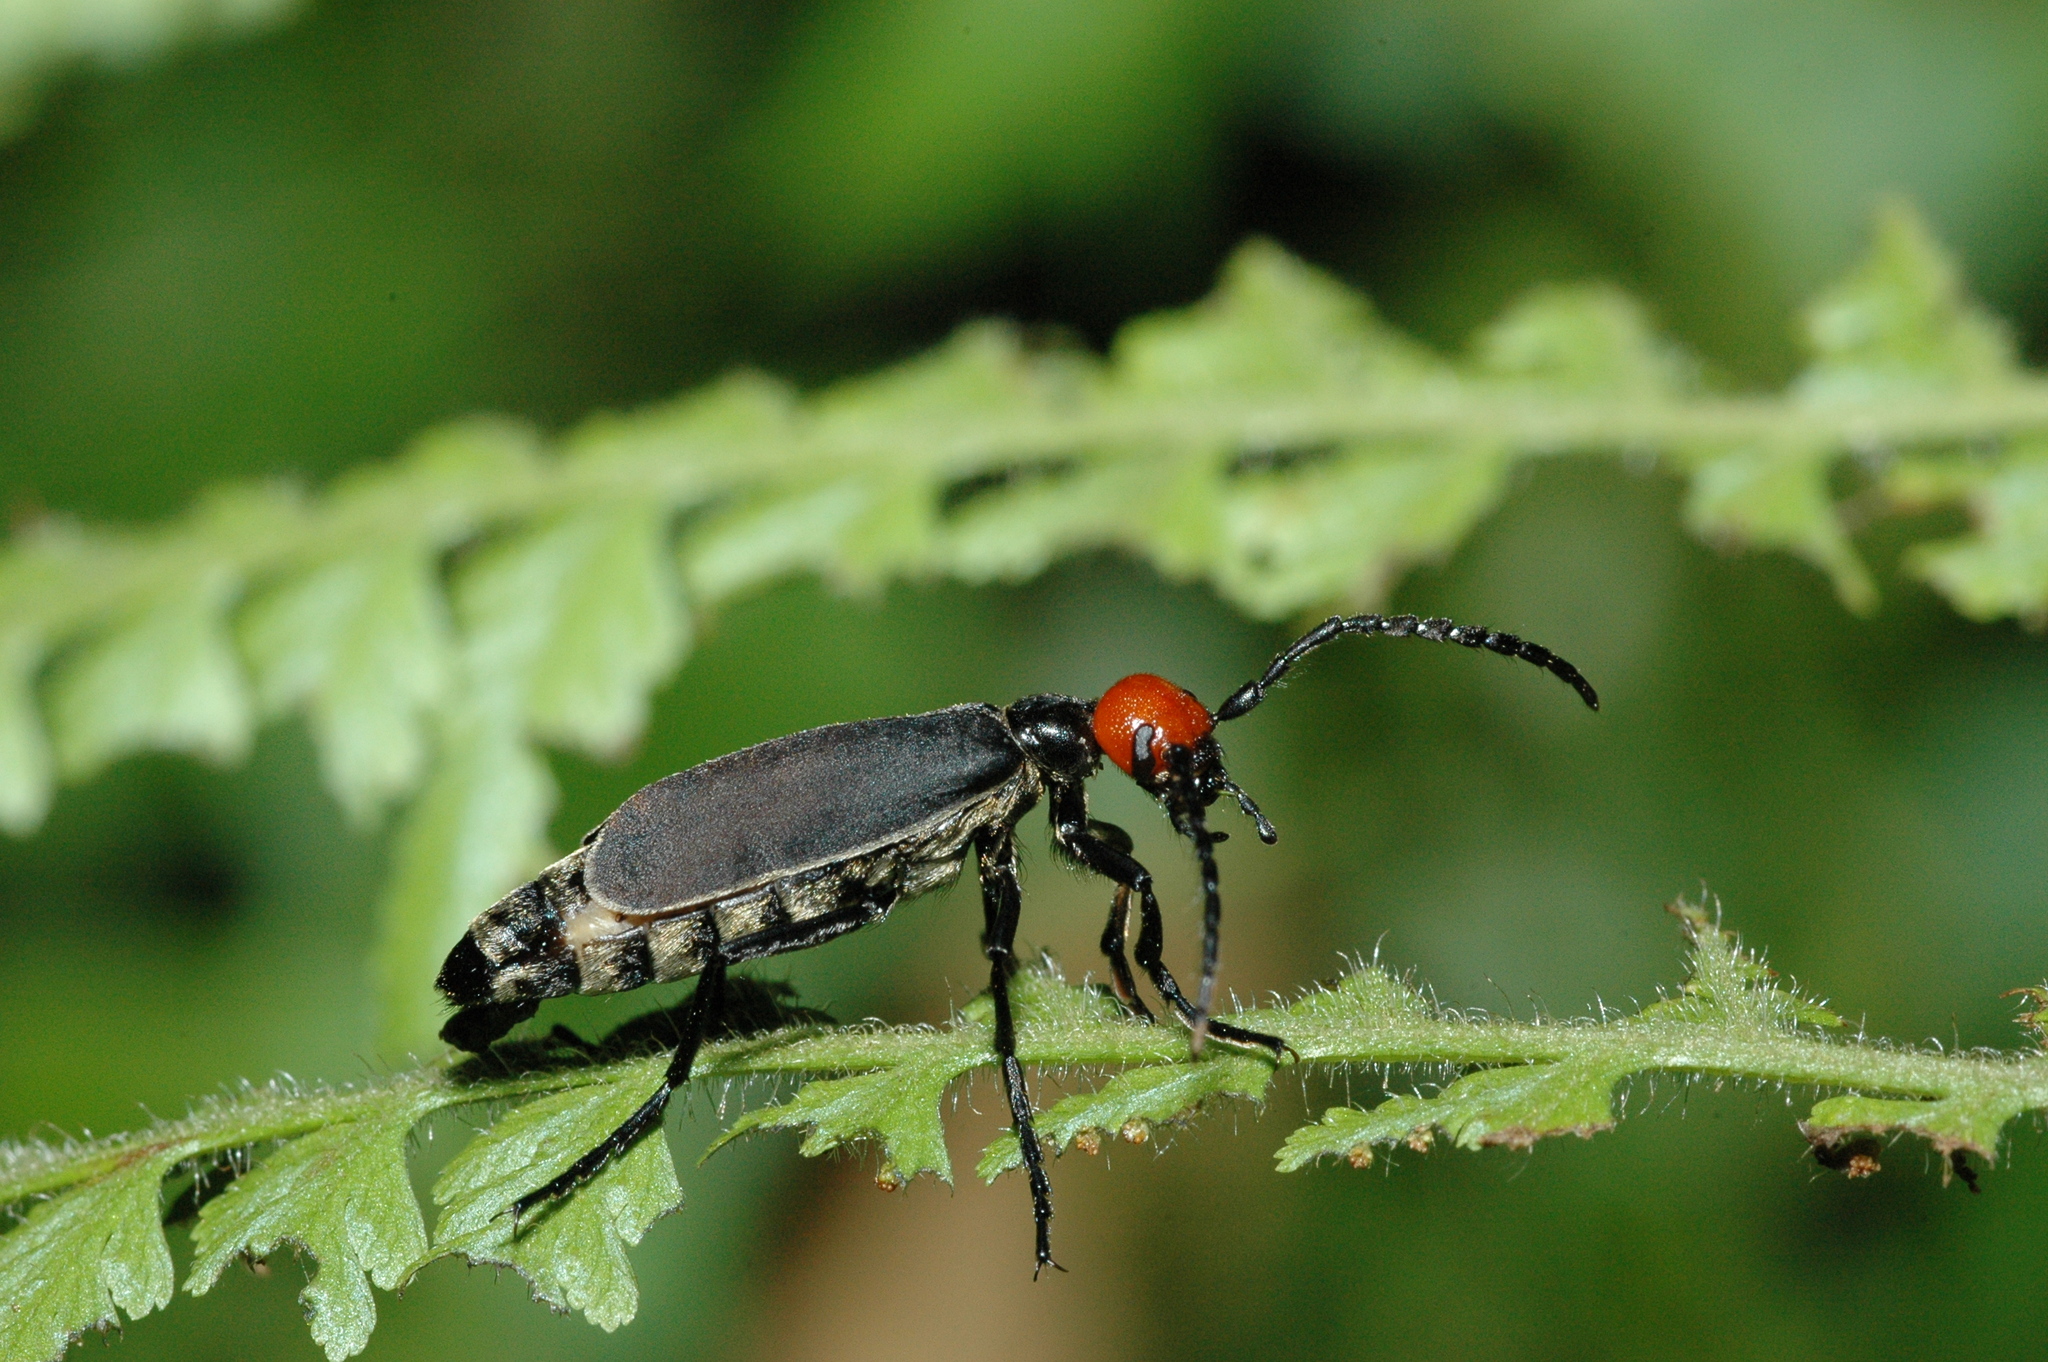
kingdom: Animalia
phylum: Arthropoda
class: Insecta
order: Coleoptera
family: Meloidae
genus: Epicauta
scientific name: Epicauta hirticornis
